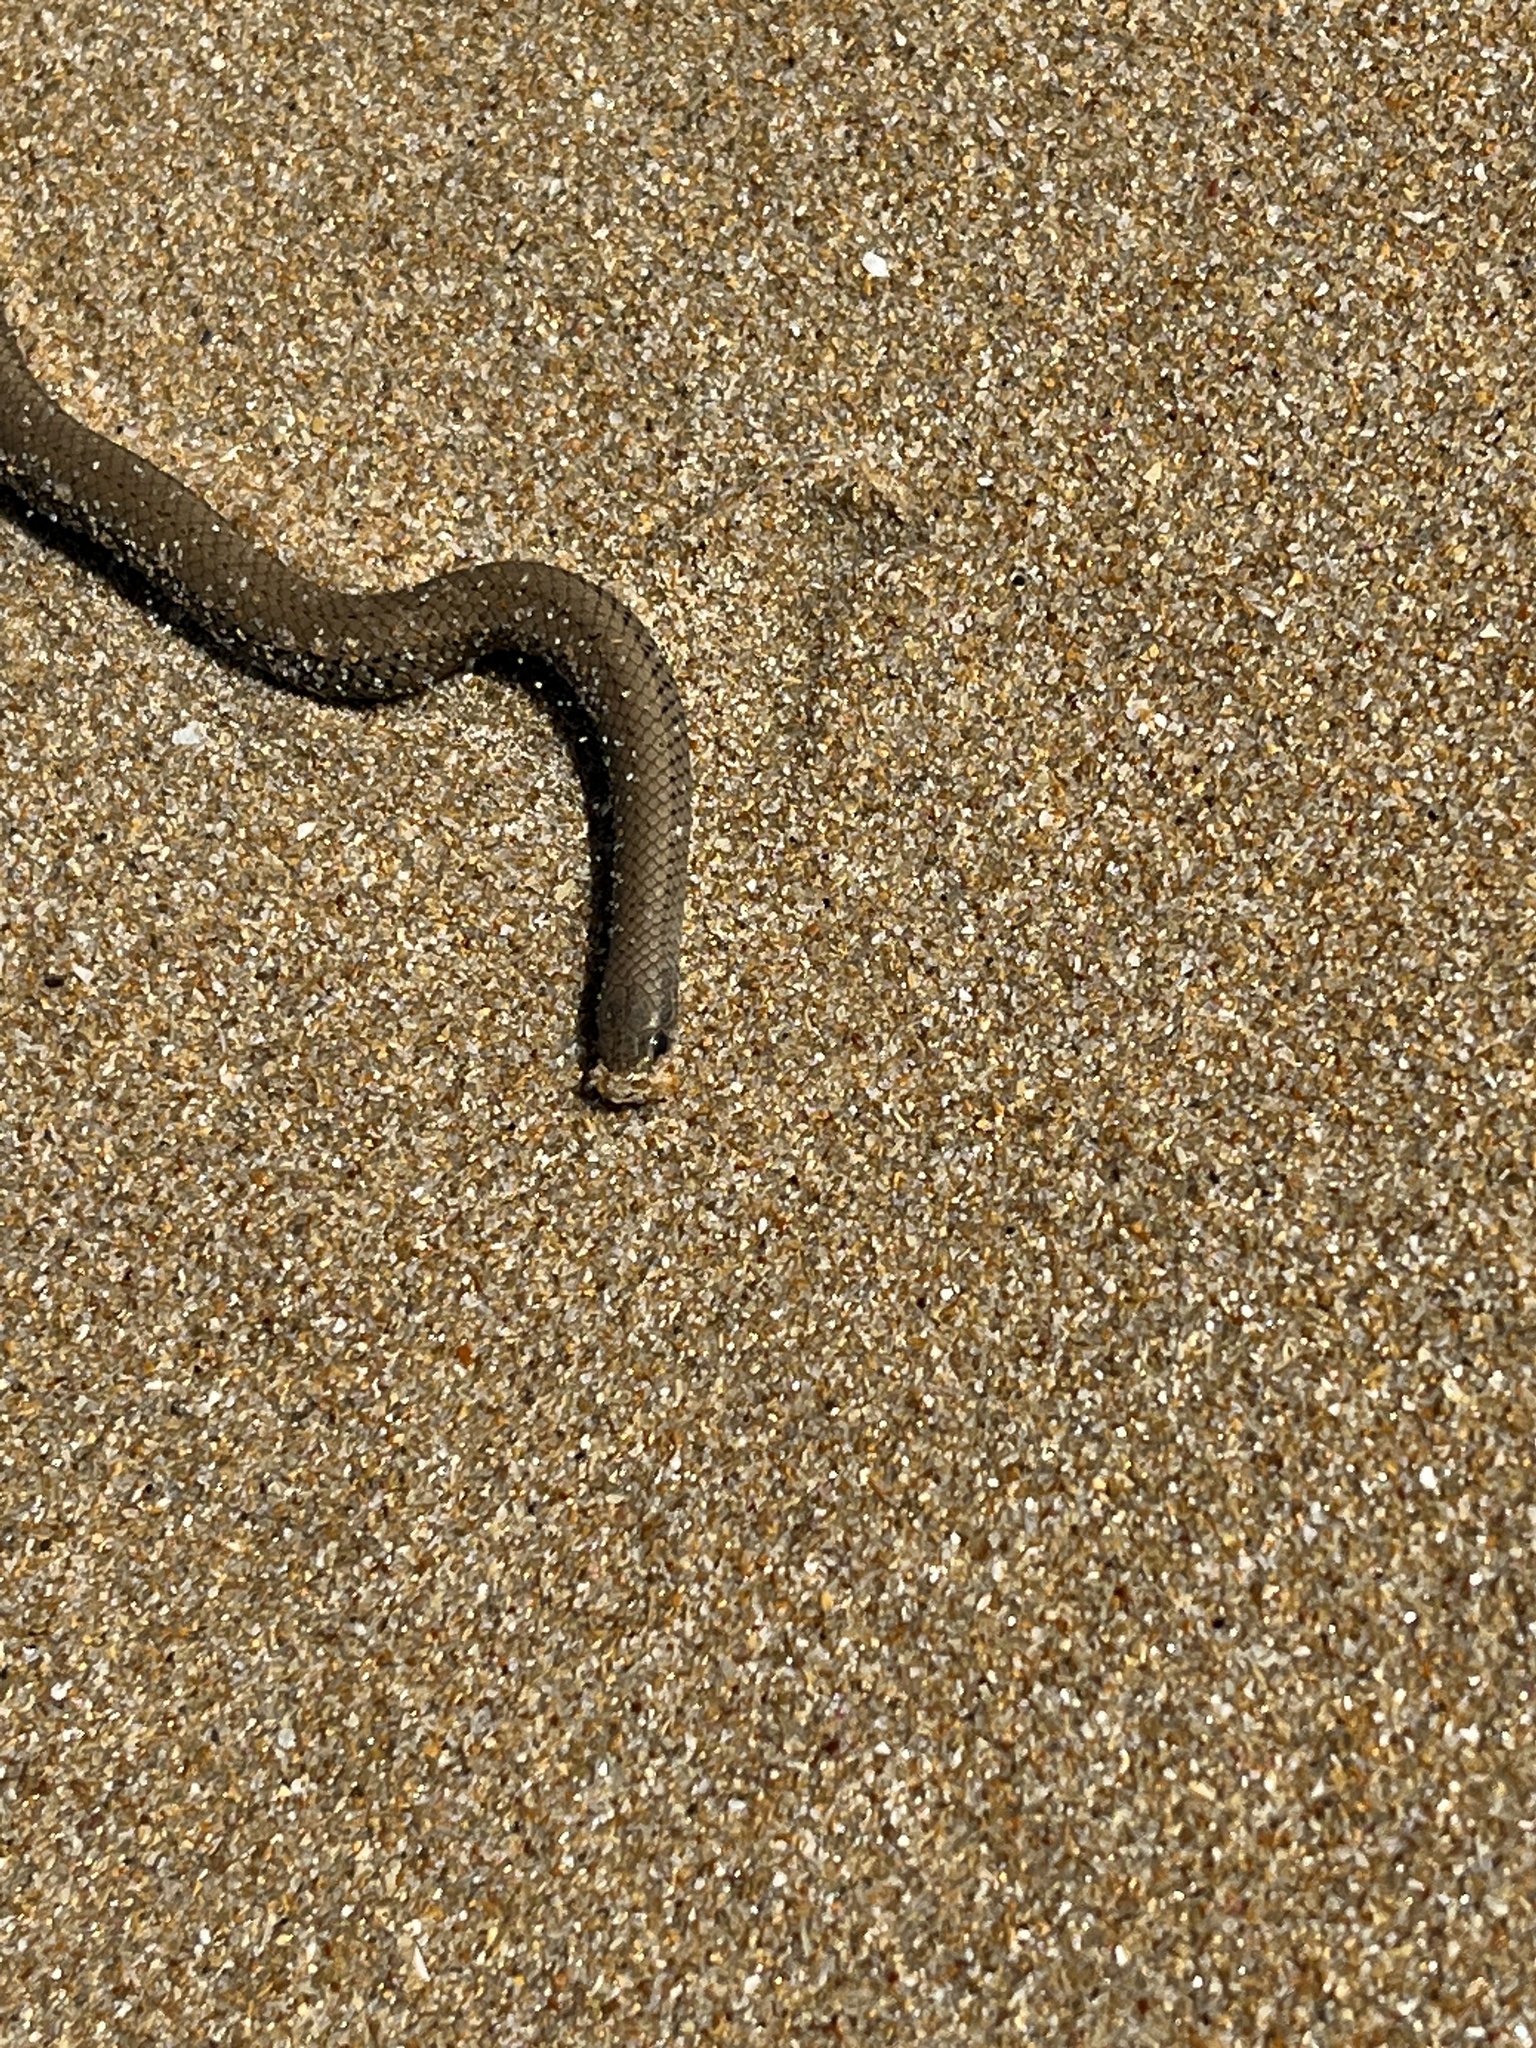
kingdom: Animalia
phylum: Chordata
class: Squamata
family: Pseudoxyrhophiidae
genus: Duberria
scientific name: Duberria lutrix
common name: Common slug eater
